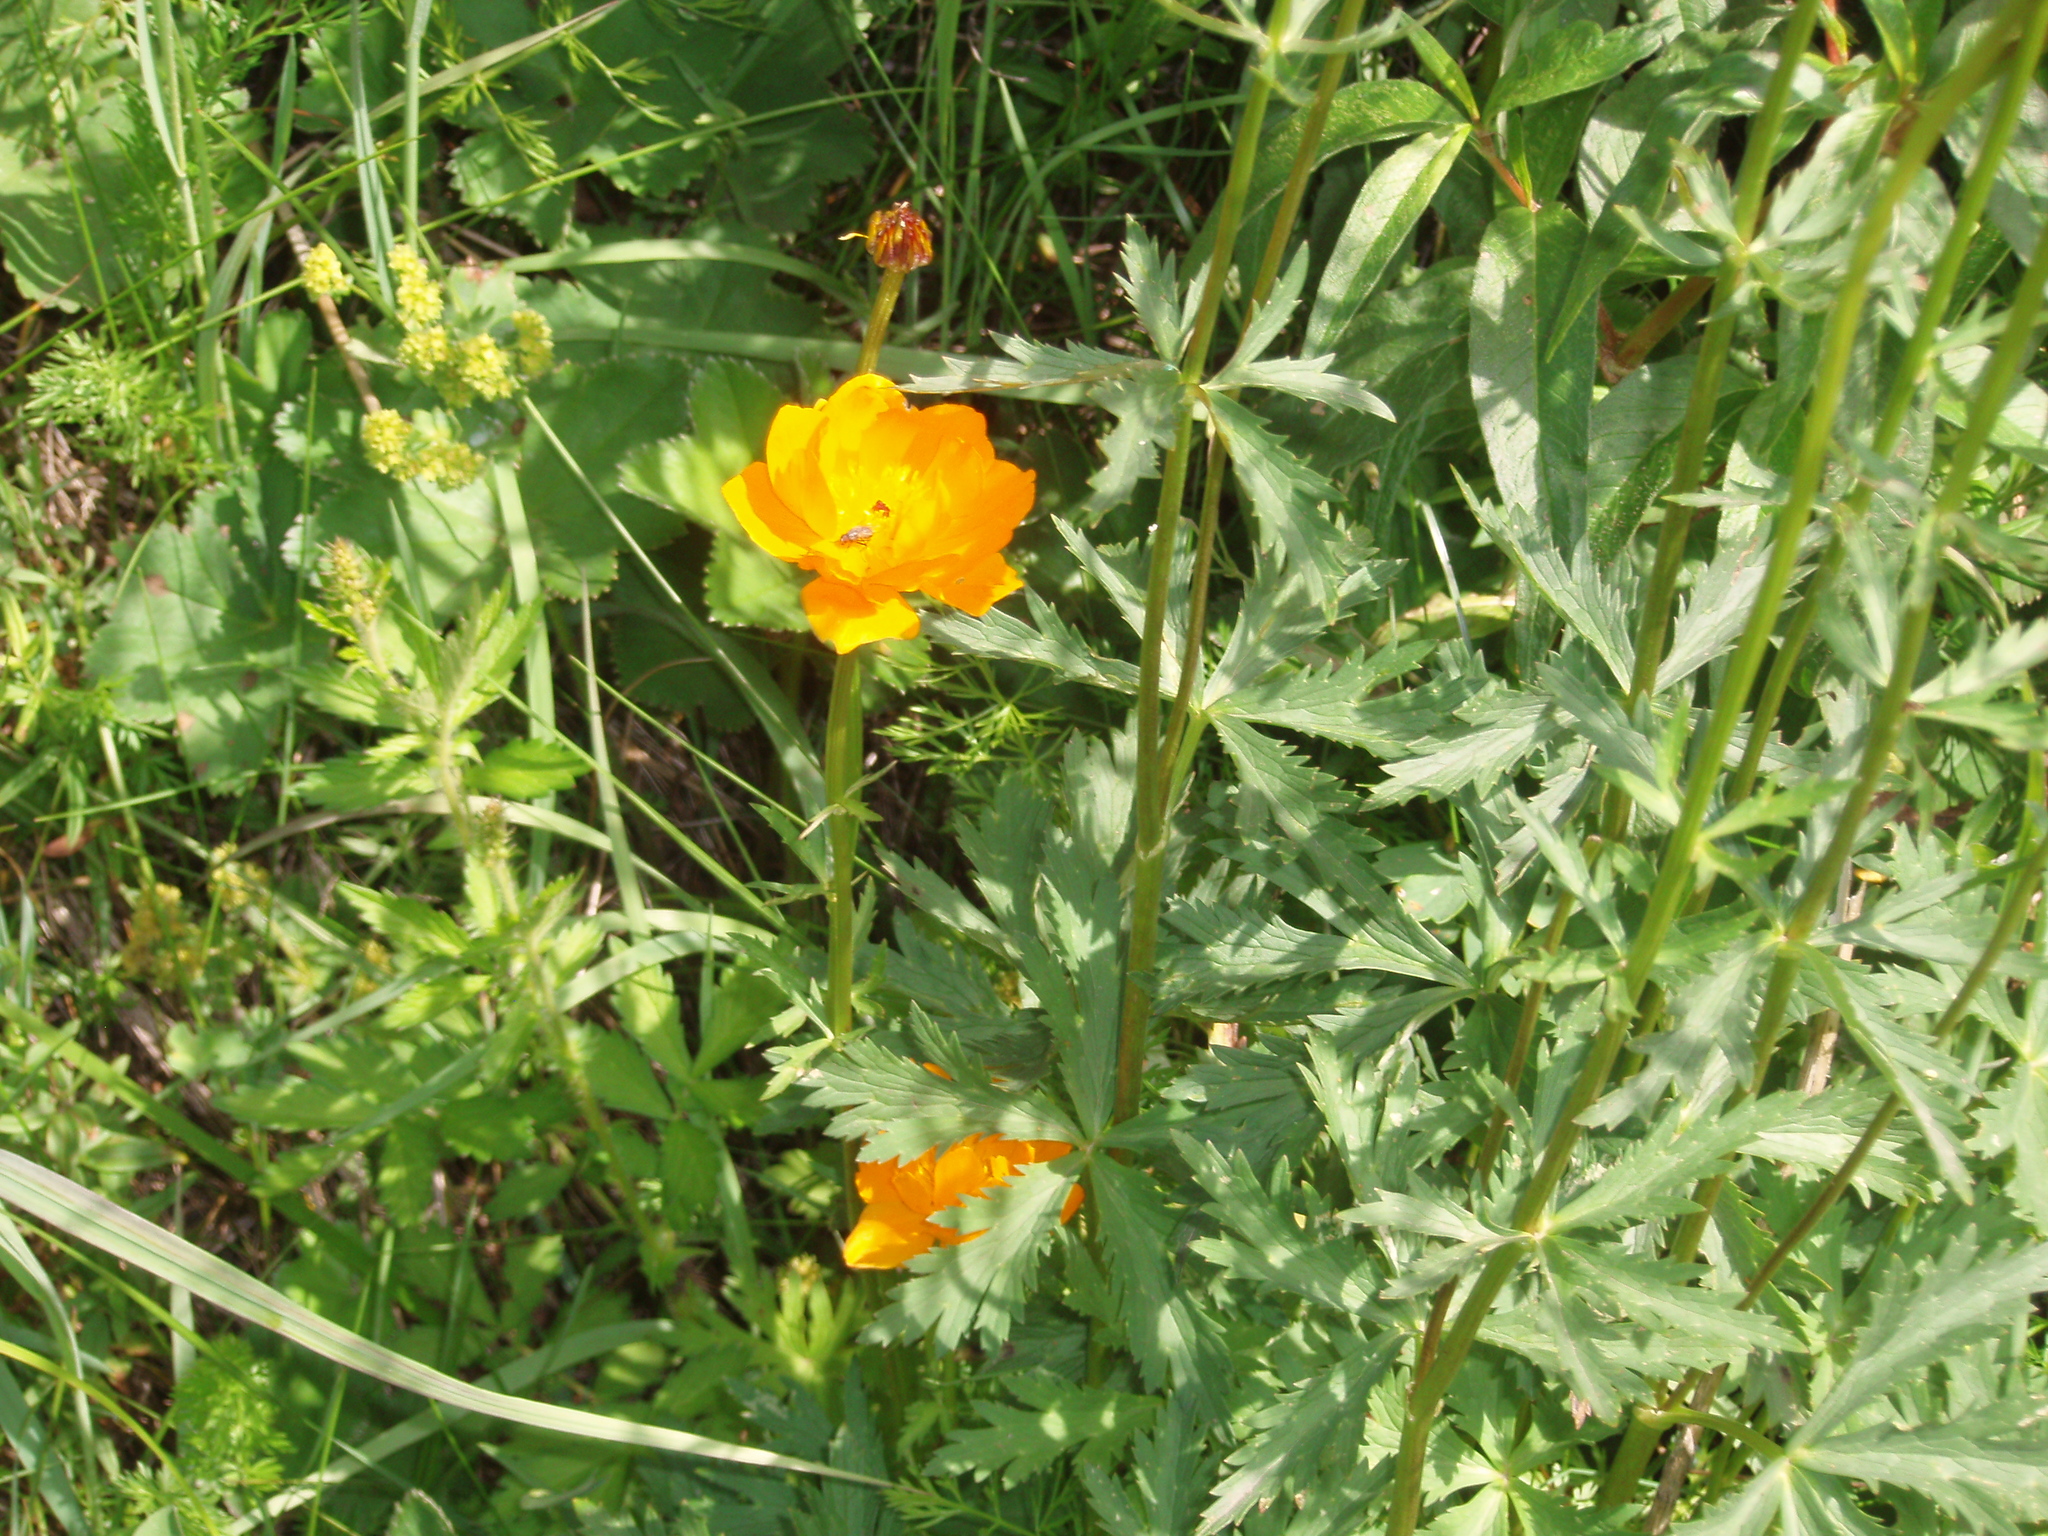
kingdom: Plantae
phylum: Tracheophyta
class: Magnoliopsida
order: Ranunculales
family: Ranunculaceae
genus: Trollius
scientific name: Trollius asiaticus
